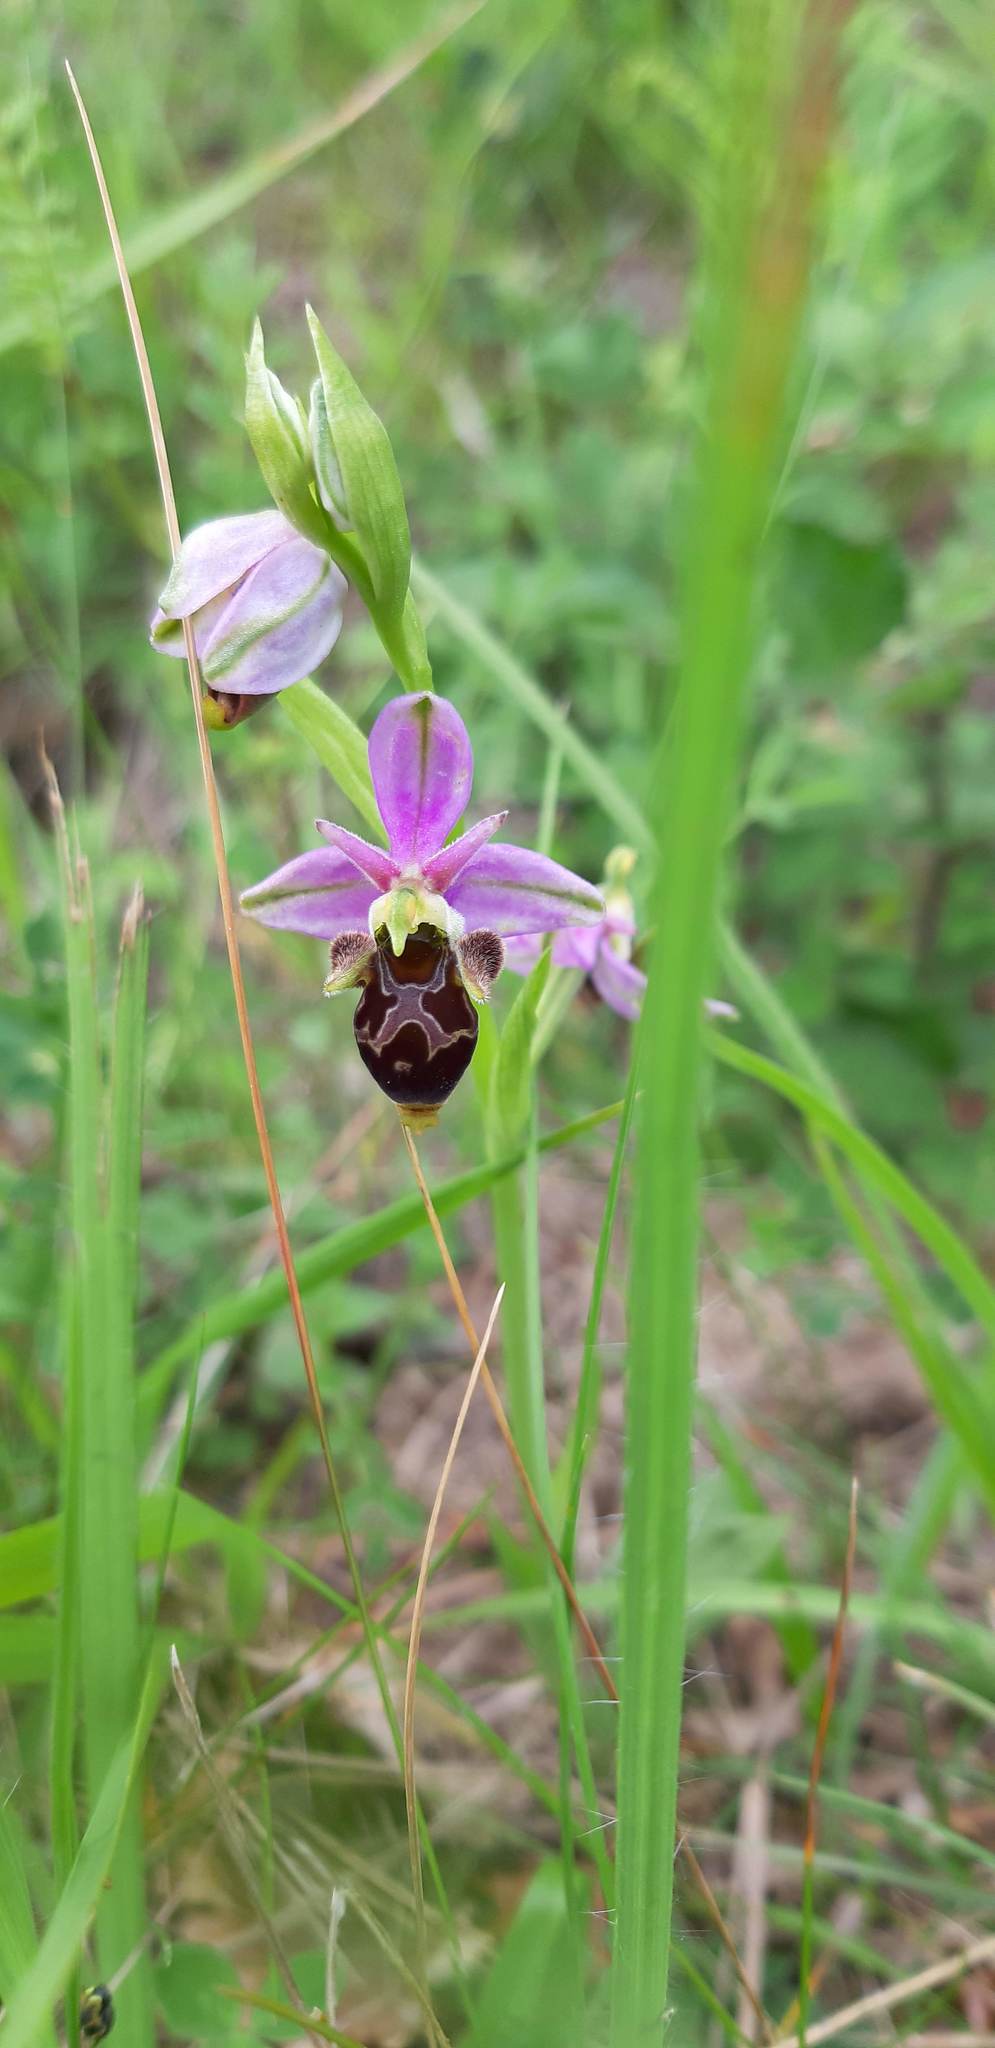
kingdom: Plantae
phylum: Tracheophyta
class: Liliopsida
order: Asparagales
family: Orchidaceae
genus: Ophrys
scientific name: Ophrys scolopax
